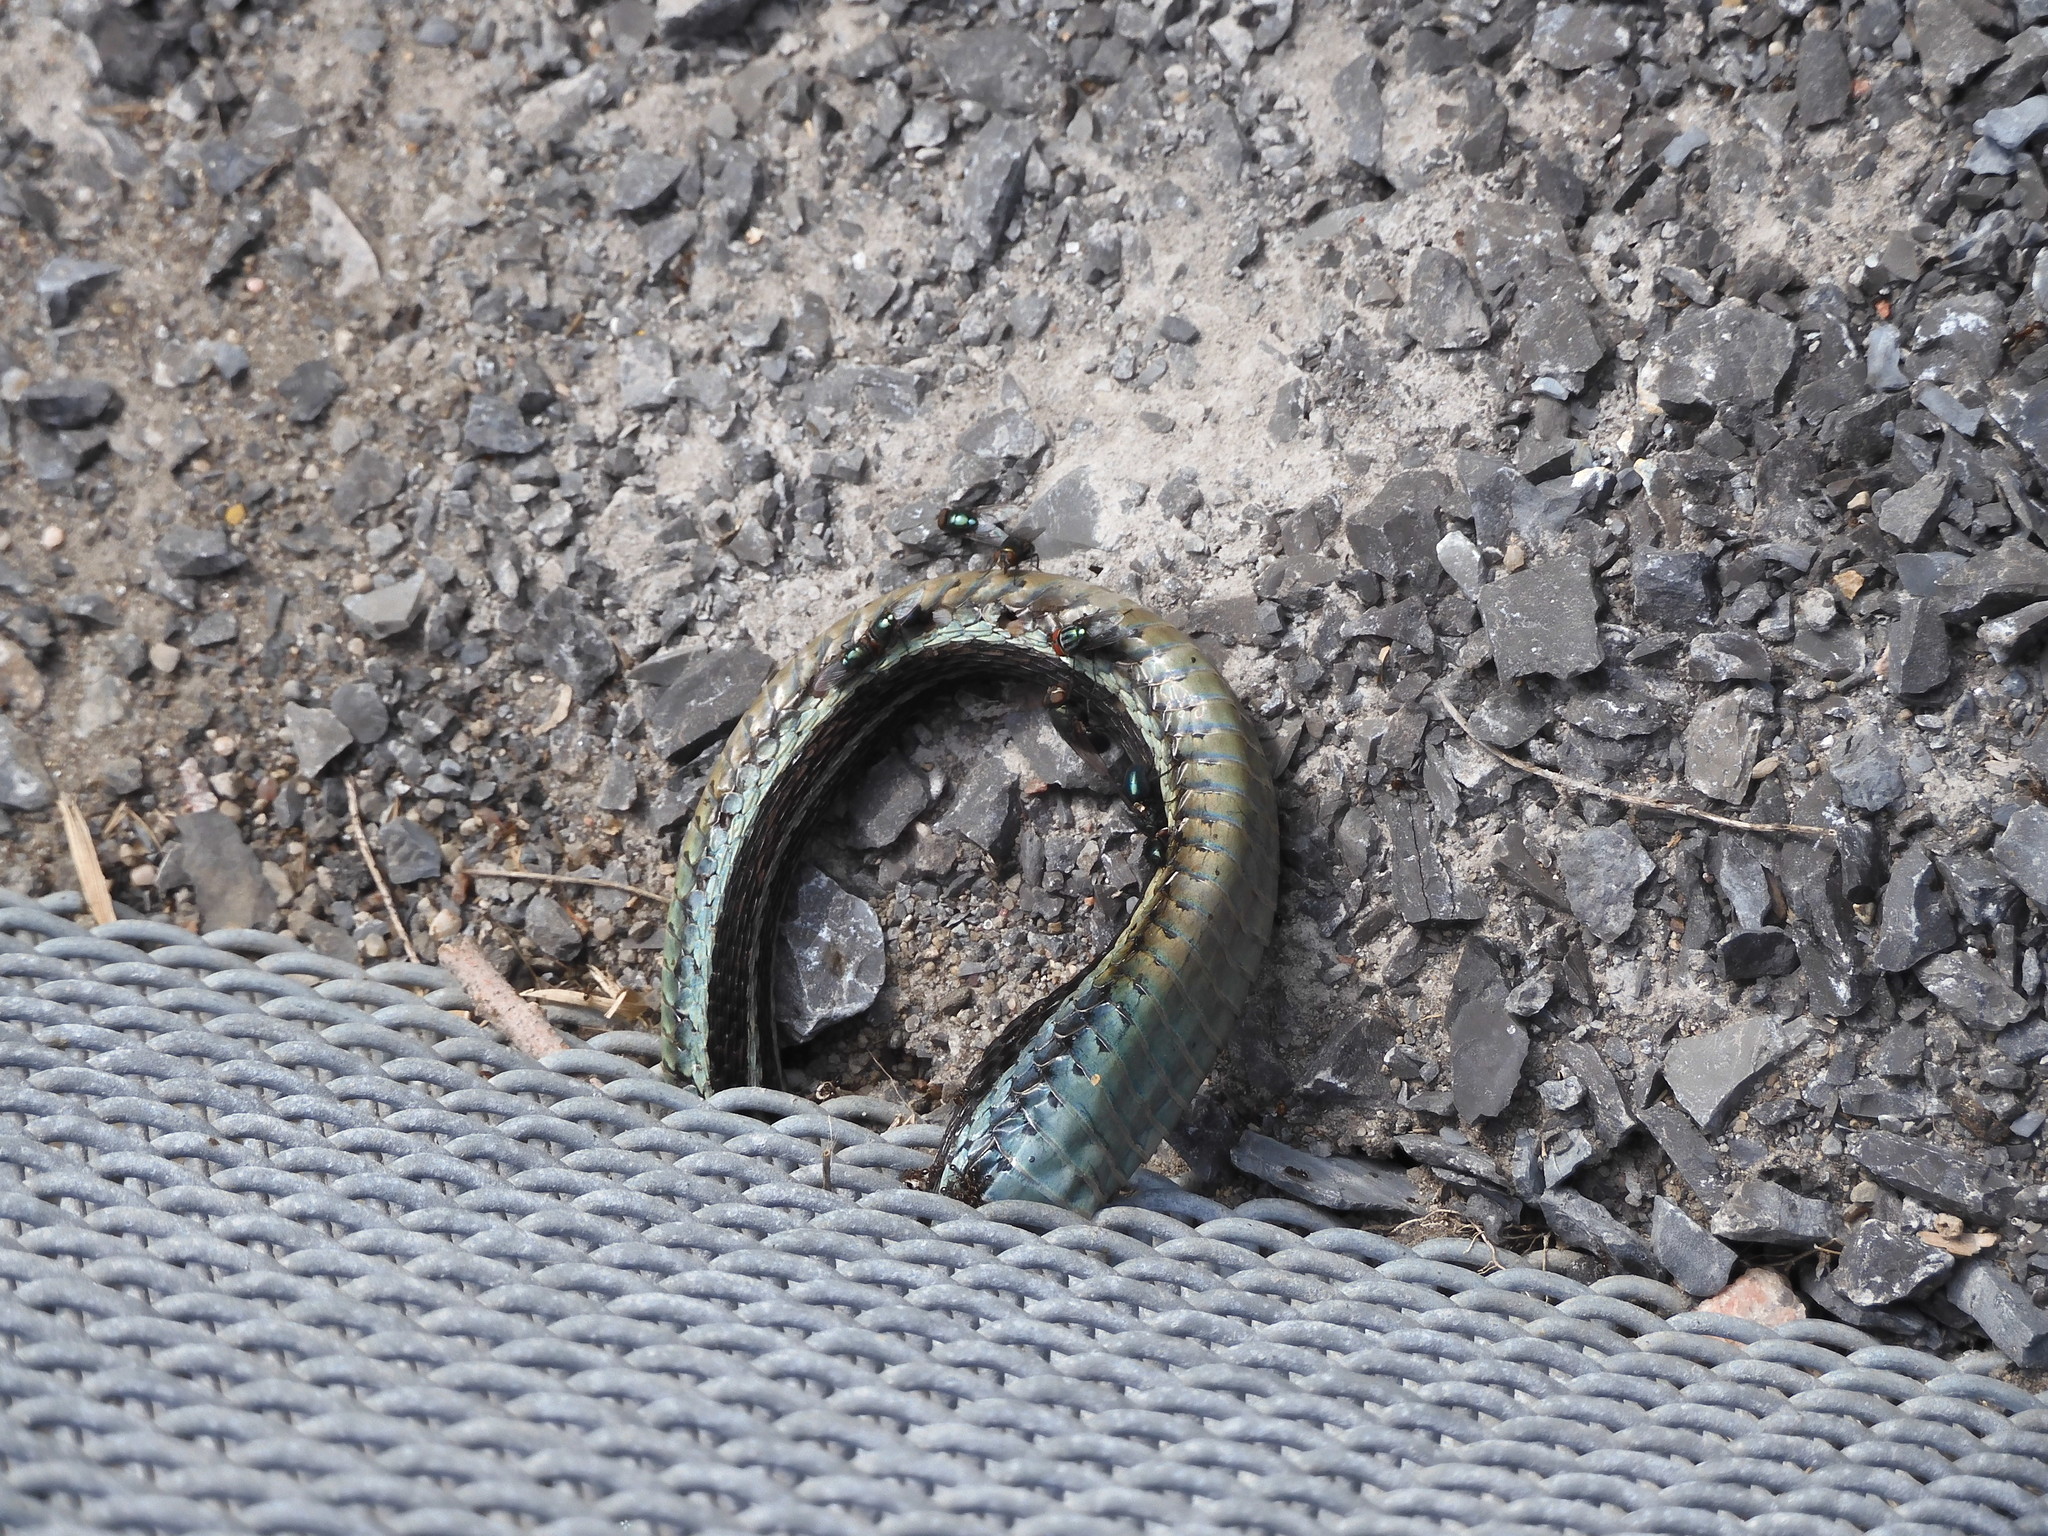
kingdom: Animalia
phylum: Chordata
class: Squamata
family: Colubridae
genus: Thamnophis
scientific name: Thamnophis sirtalis
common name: Common garter snake
